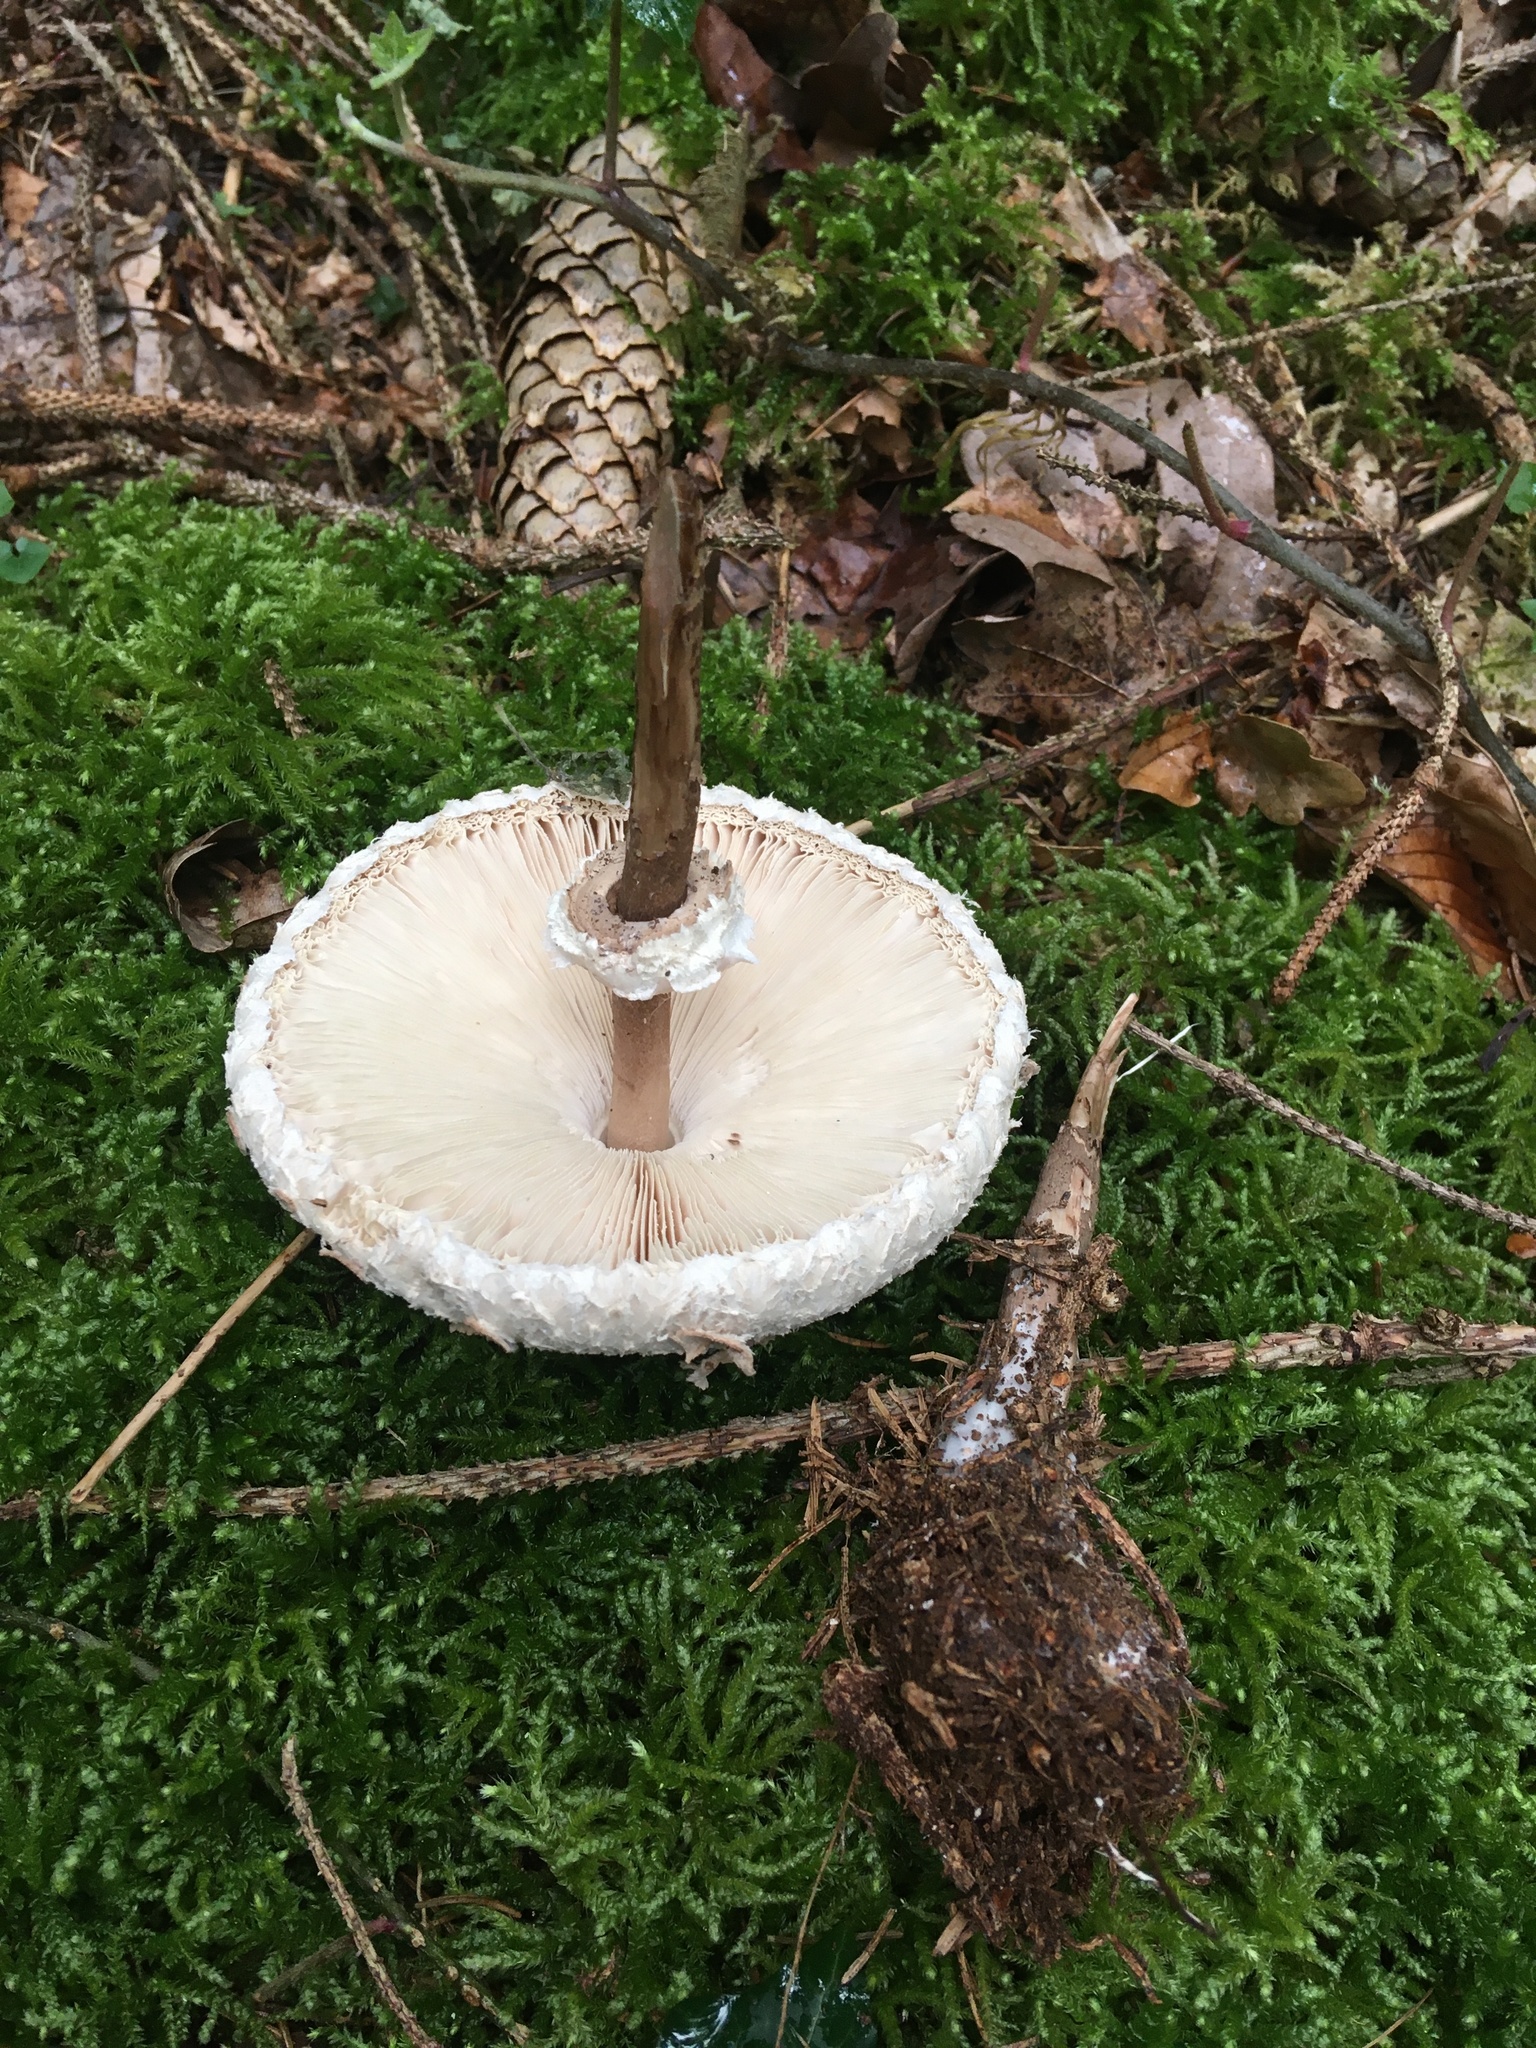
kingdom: Fungi
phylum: Basidiomycota
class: Agaricomycetes
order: Agaricales
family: Agaricaceae
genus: Macrolepiota
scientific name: Macrolepiota procera
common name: Parasol
